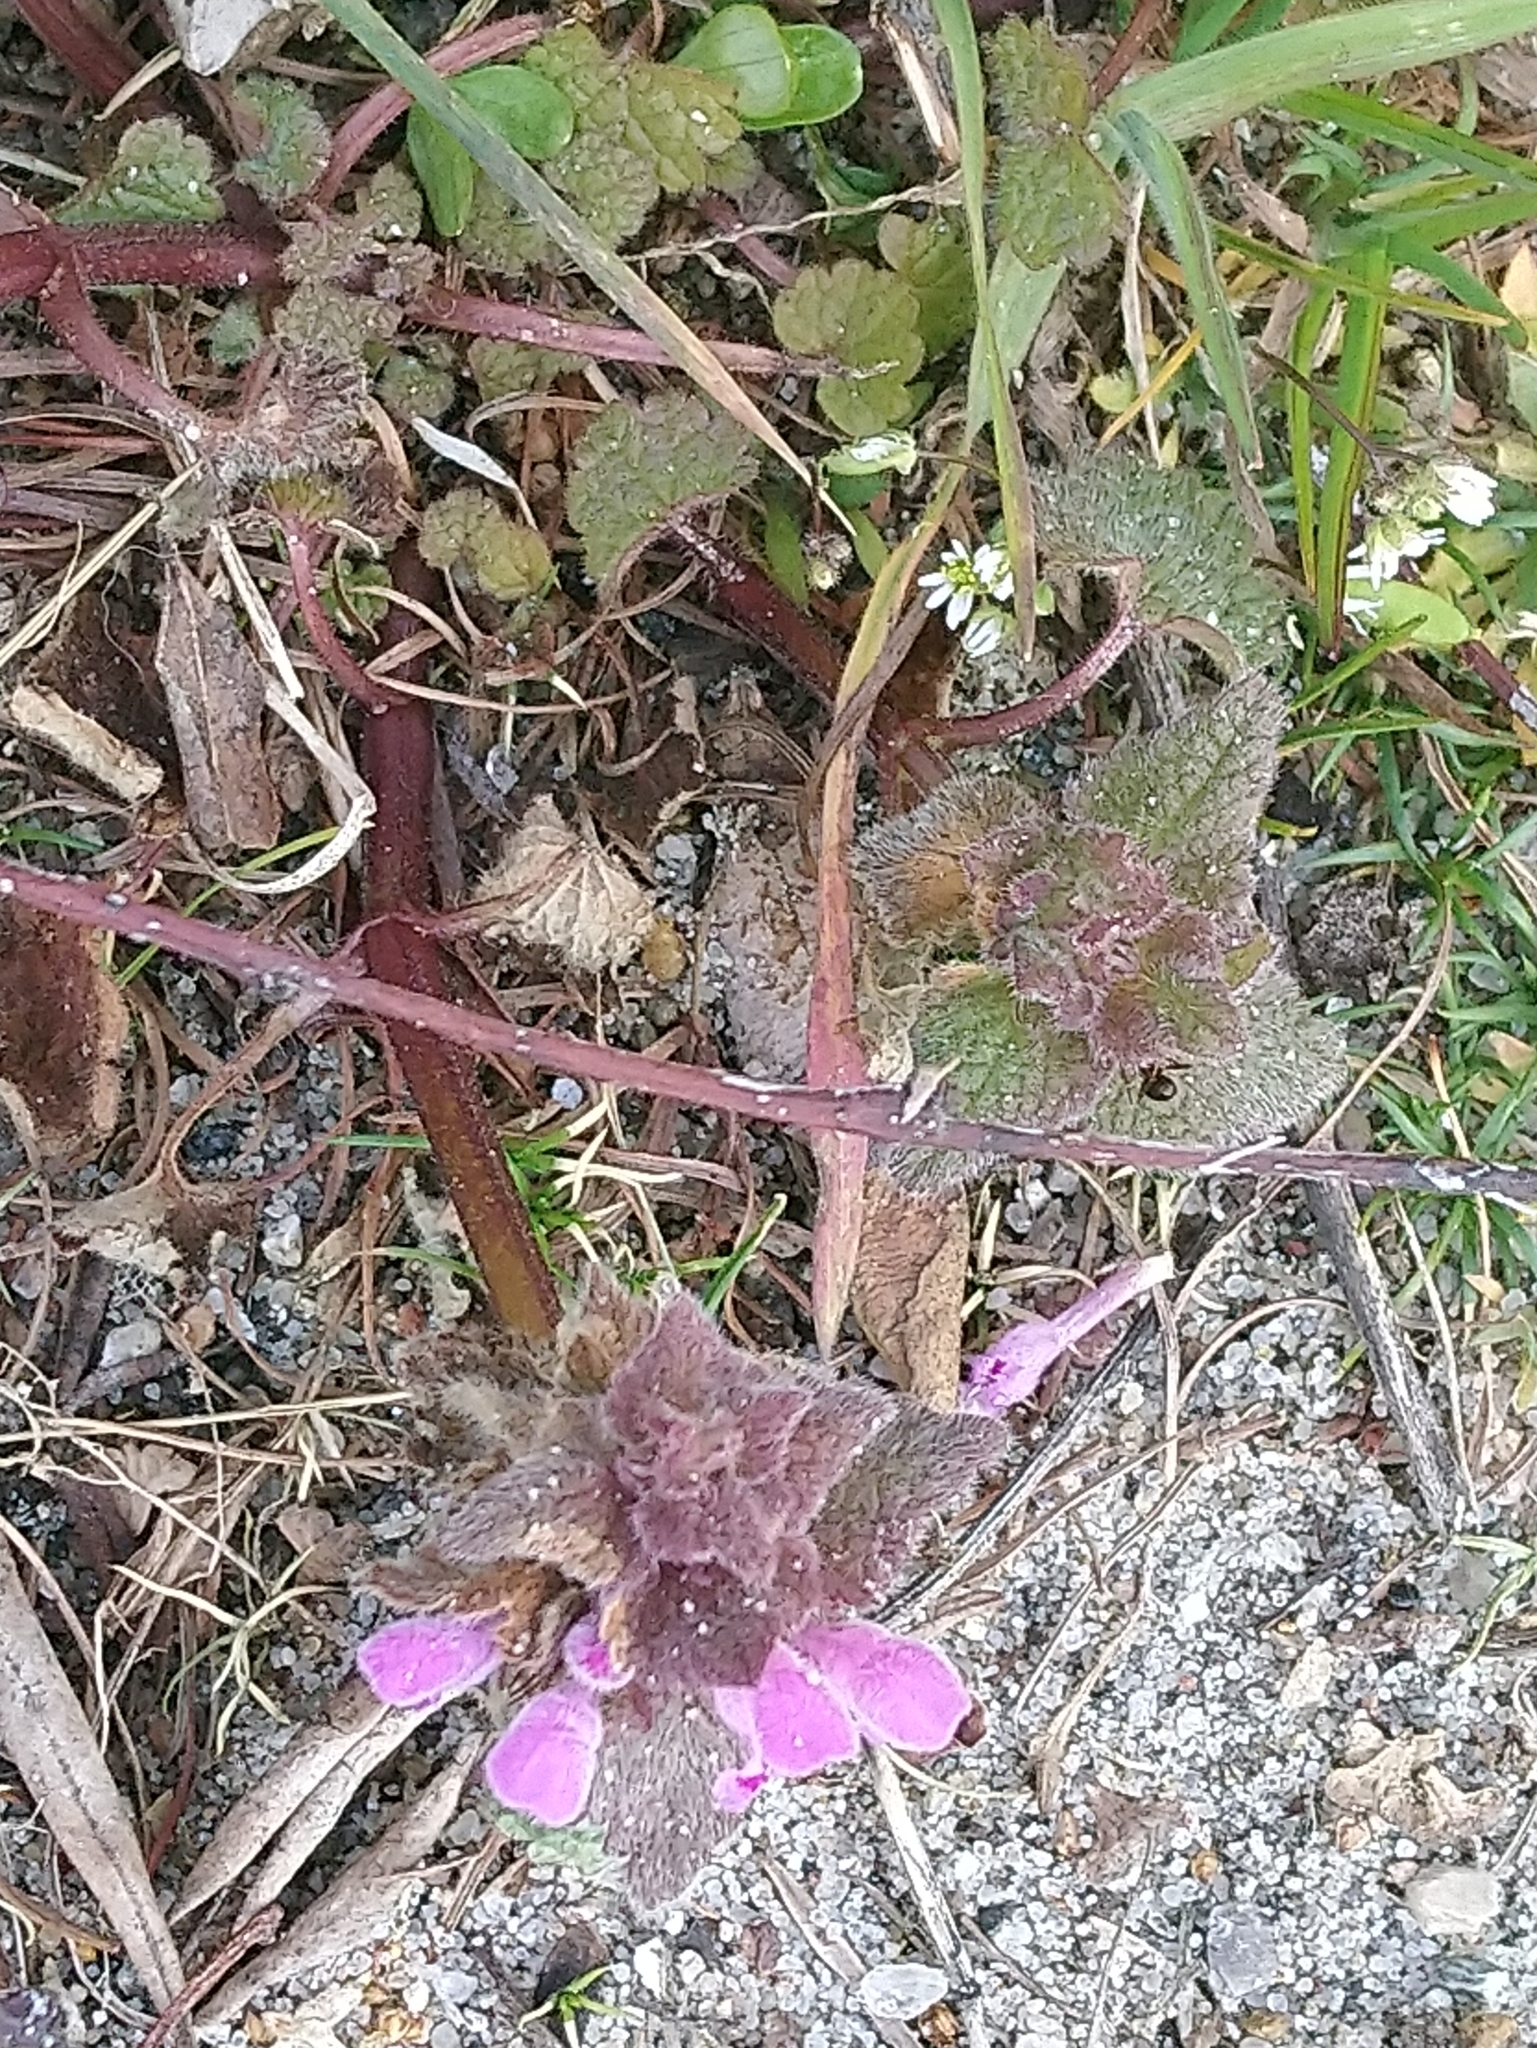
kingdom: Plantae
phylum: Tracheophyta
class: Magnoliopsida
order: Lamiales
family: Lamiaceae
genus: Lamium
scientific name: Lamium purpureum
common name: Red dead-nettle
